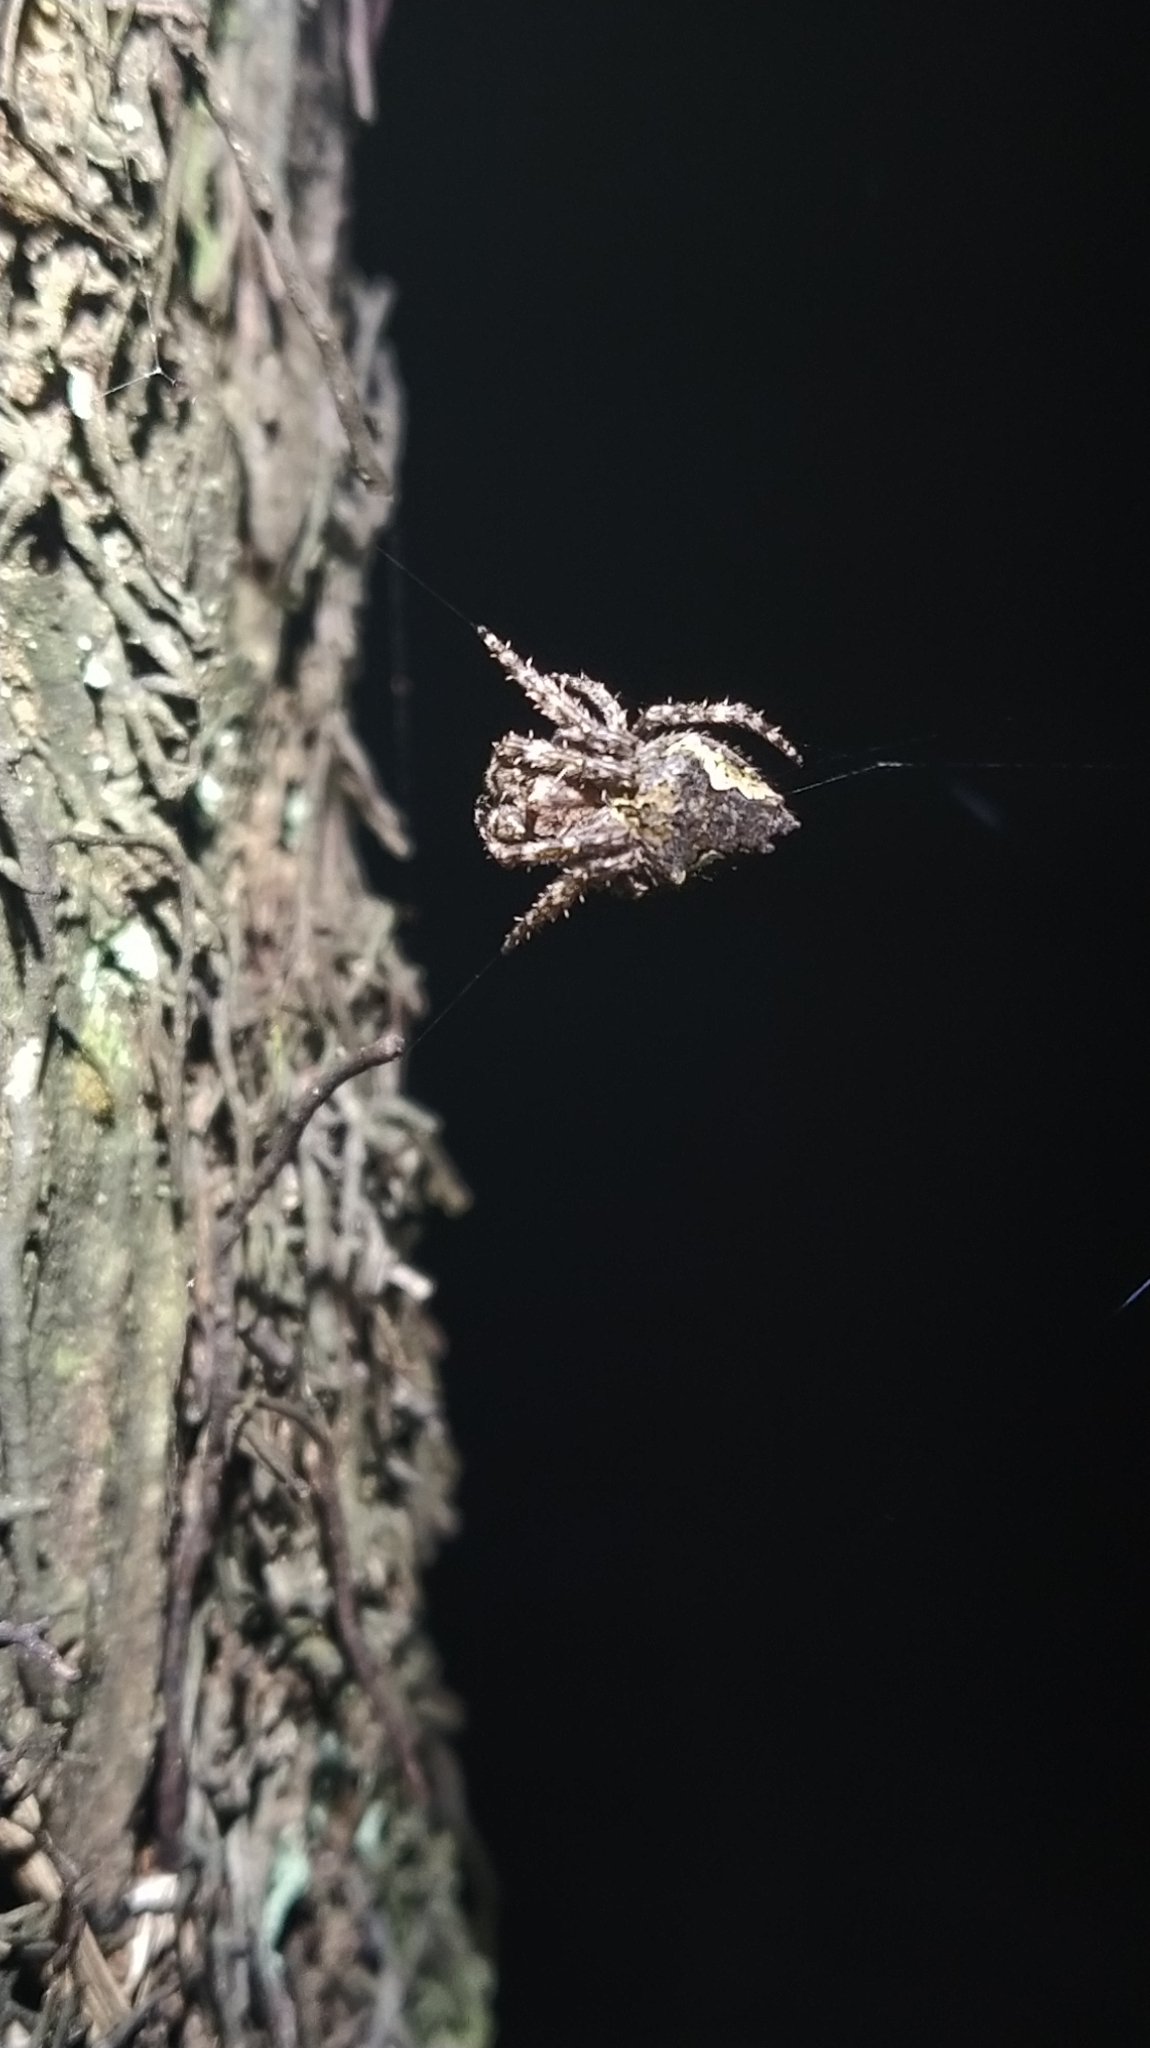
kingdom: Animalia
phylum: Arthropoda
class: Arachnida
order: Araneae
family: Araneidae
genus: Eriophora
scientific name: Eriophora pustulosa
